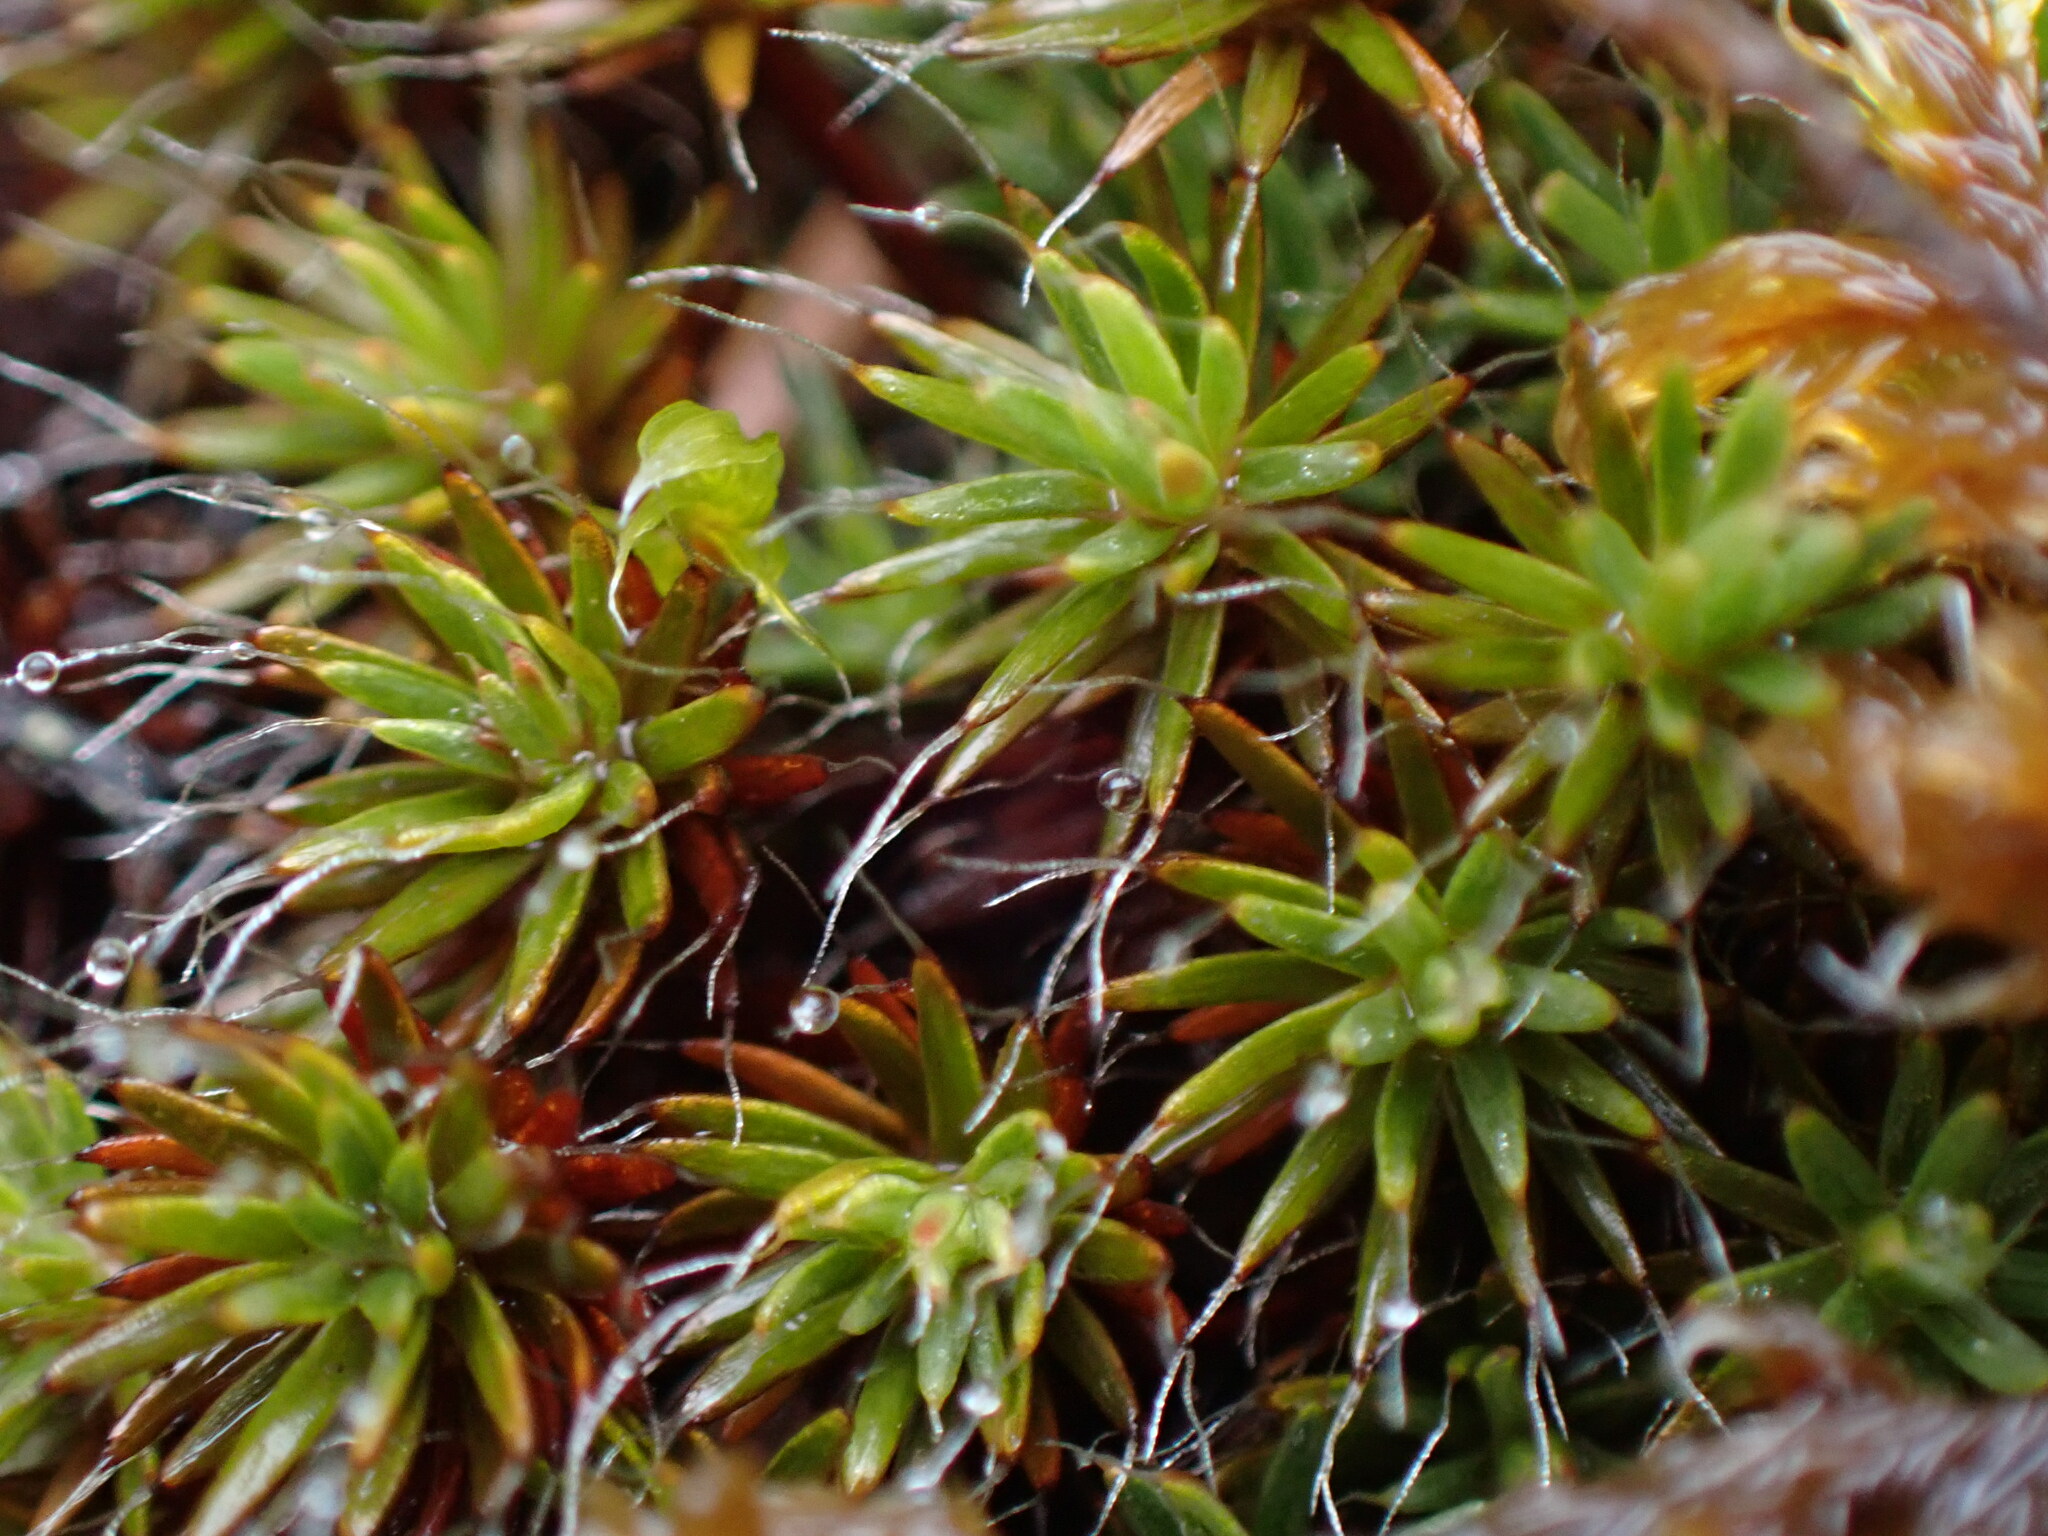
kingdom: Plantae
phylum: Bryophyta
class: Polytrichopsida
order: Polytrichales
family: Polytrichaceae
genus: Polytrichum
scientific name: Polytrichum piliferum
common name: Bristly haircap
